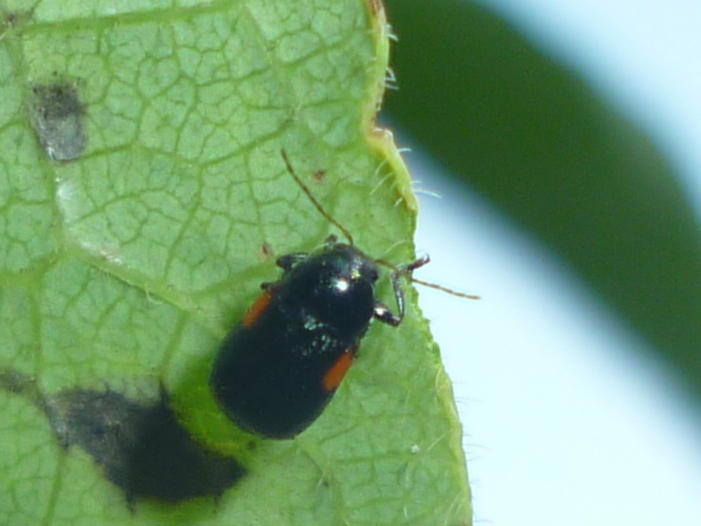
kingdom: Animalia
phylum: Arthropoda
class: Insecta
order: Coleoptera
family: Chrysomelidae
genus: Babia
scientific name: Babia quadriguttata
